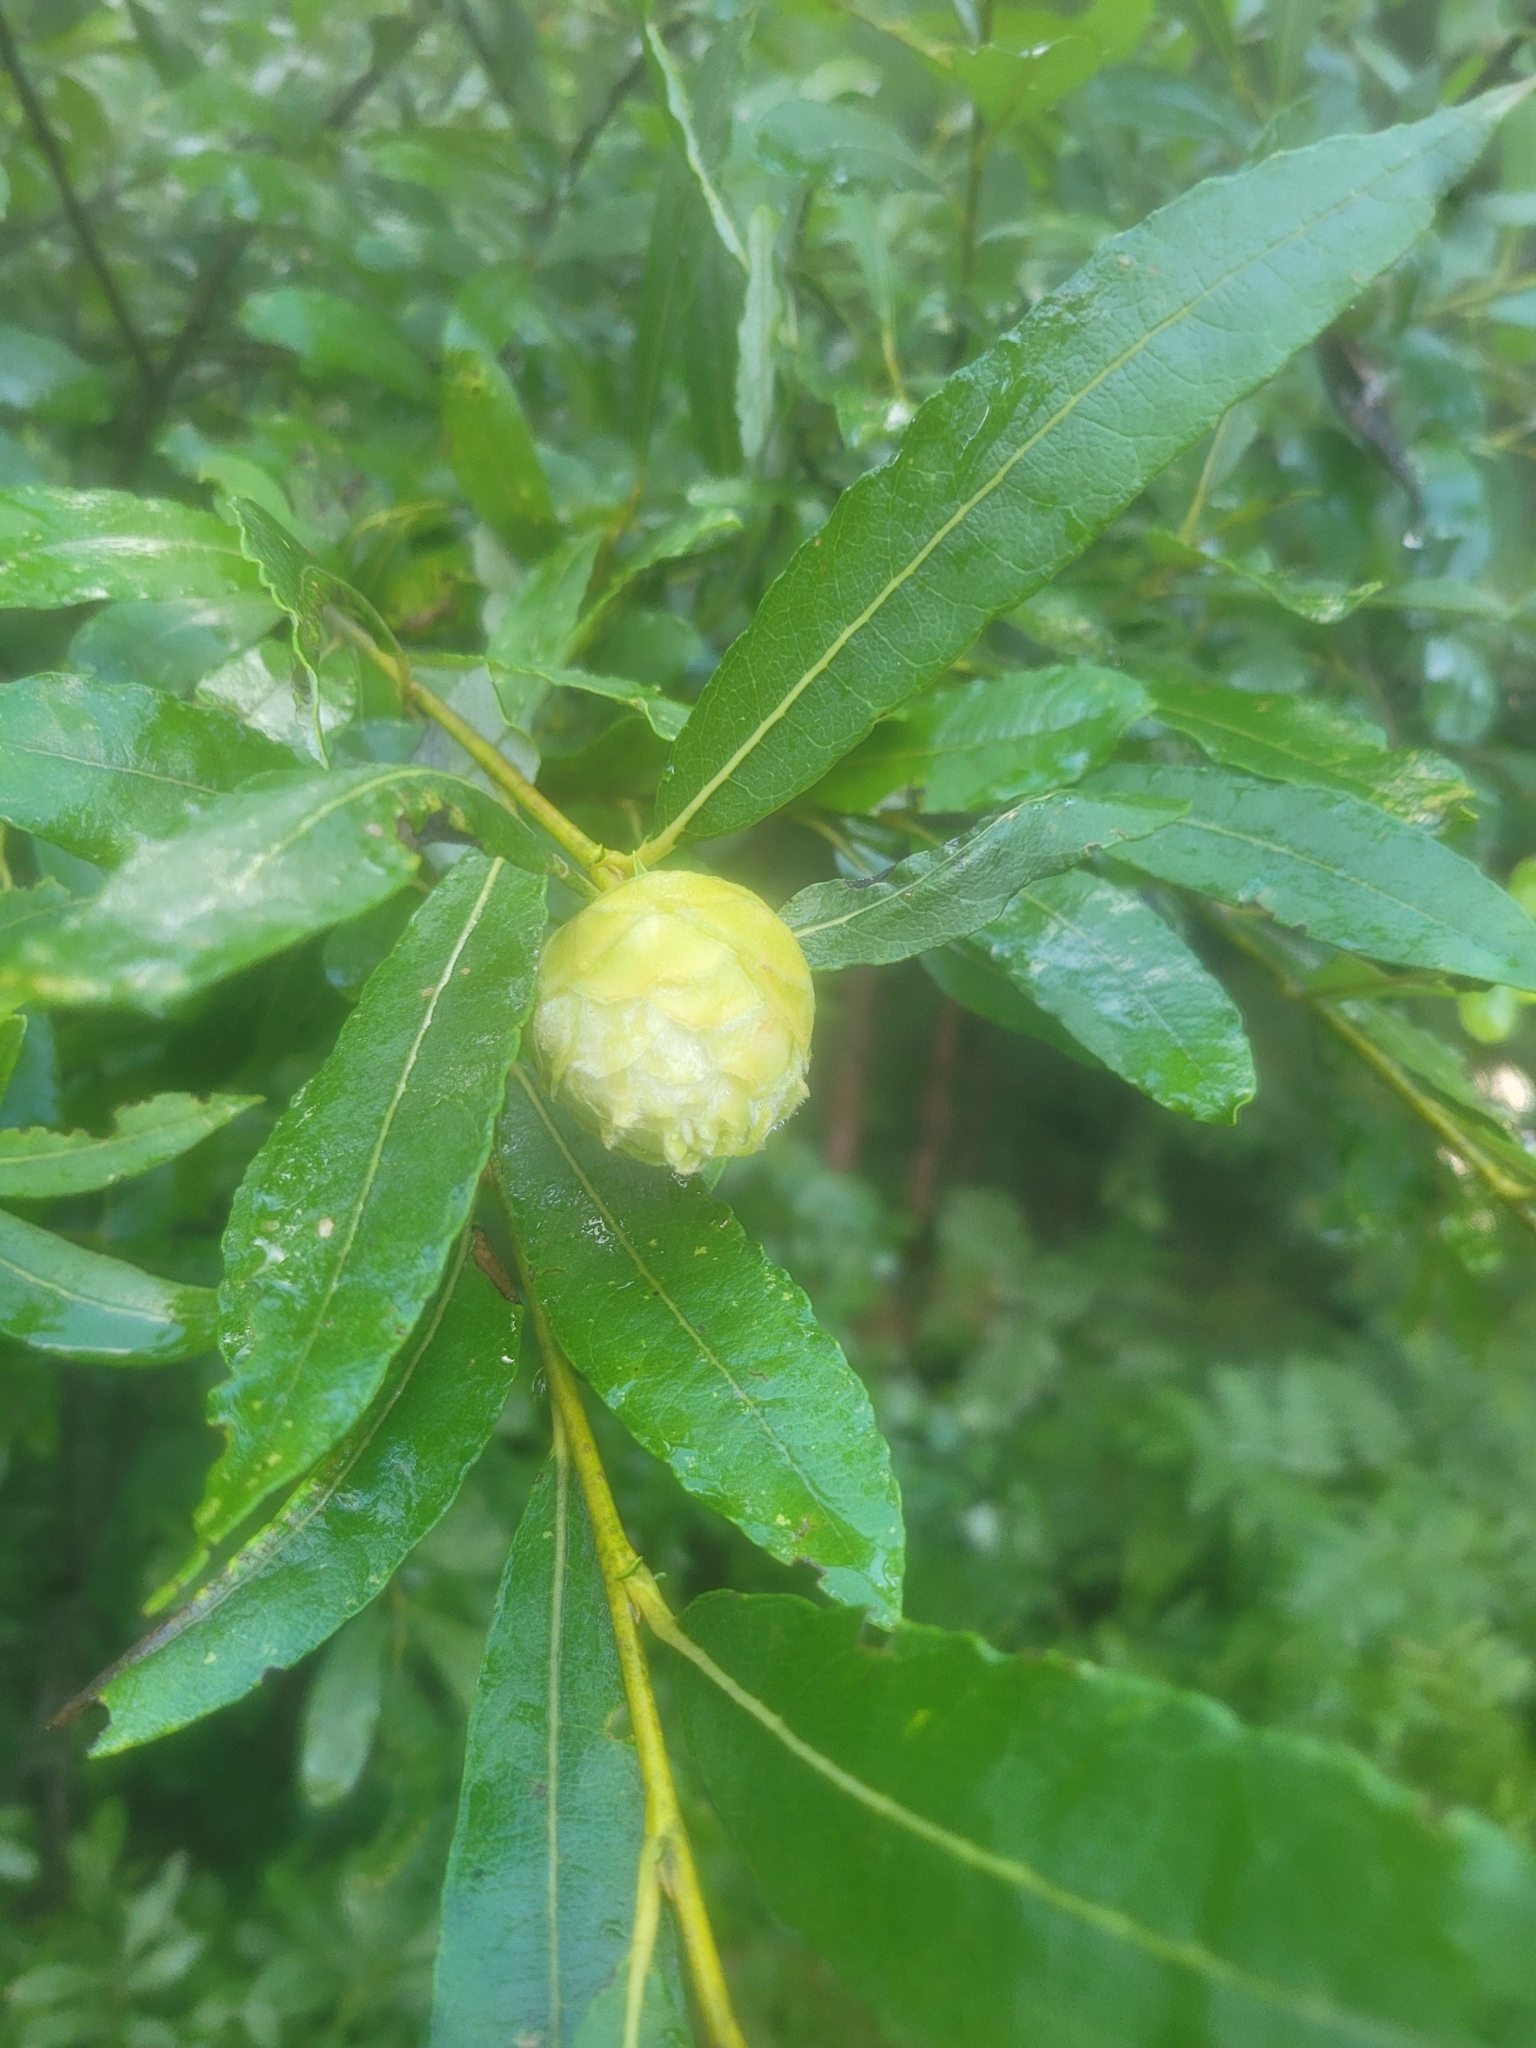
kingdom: Animalia
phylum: Arthropoda
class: Insecta
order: Diptera
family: Cecidomyiidae
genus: Rabdophaga
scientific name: Rabdophaga strobiloides
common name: Willow pinecone gall midge
